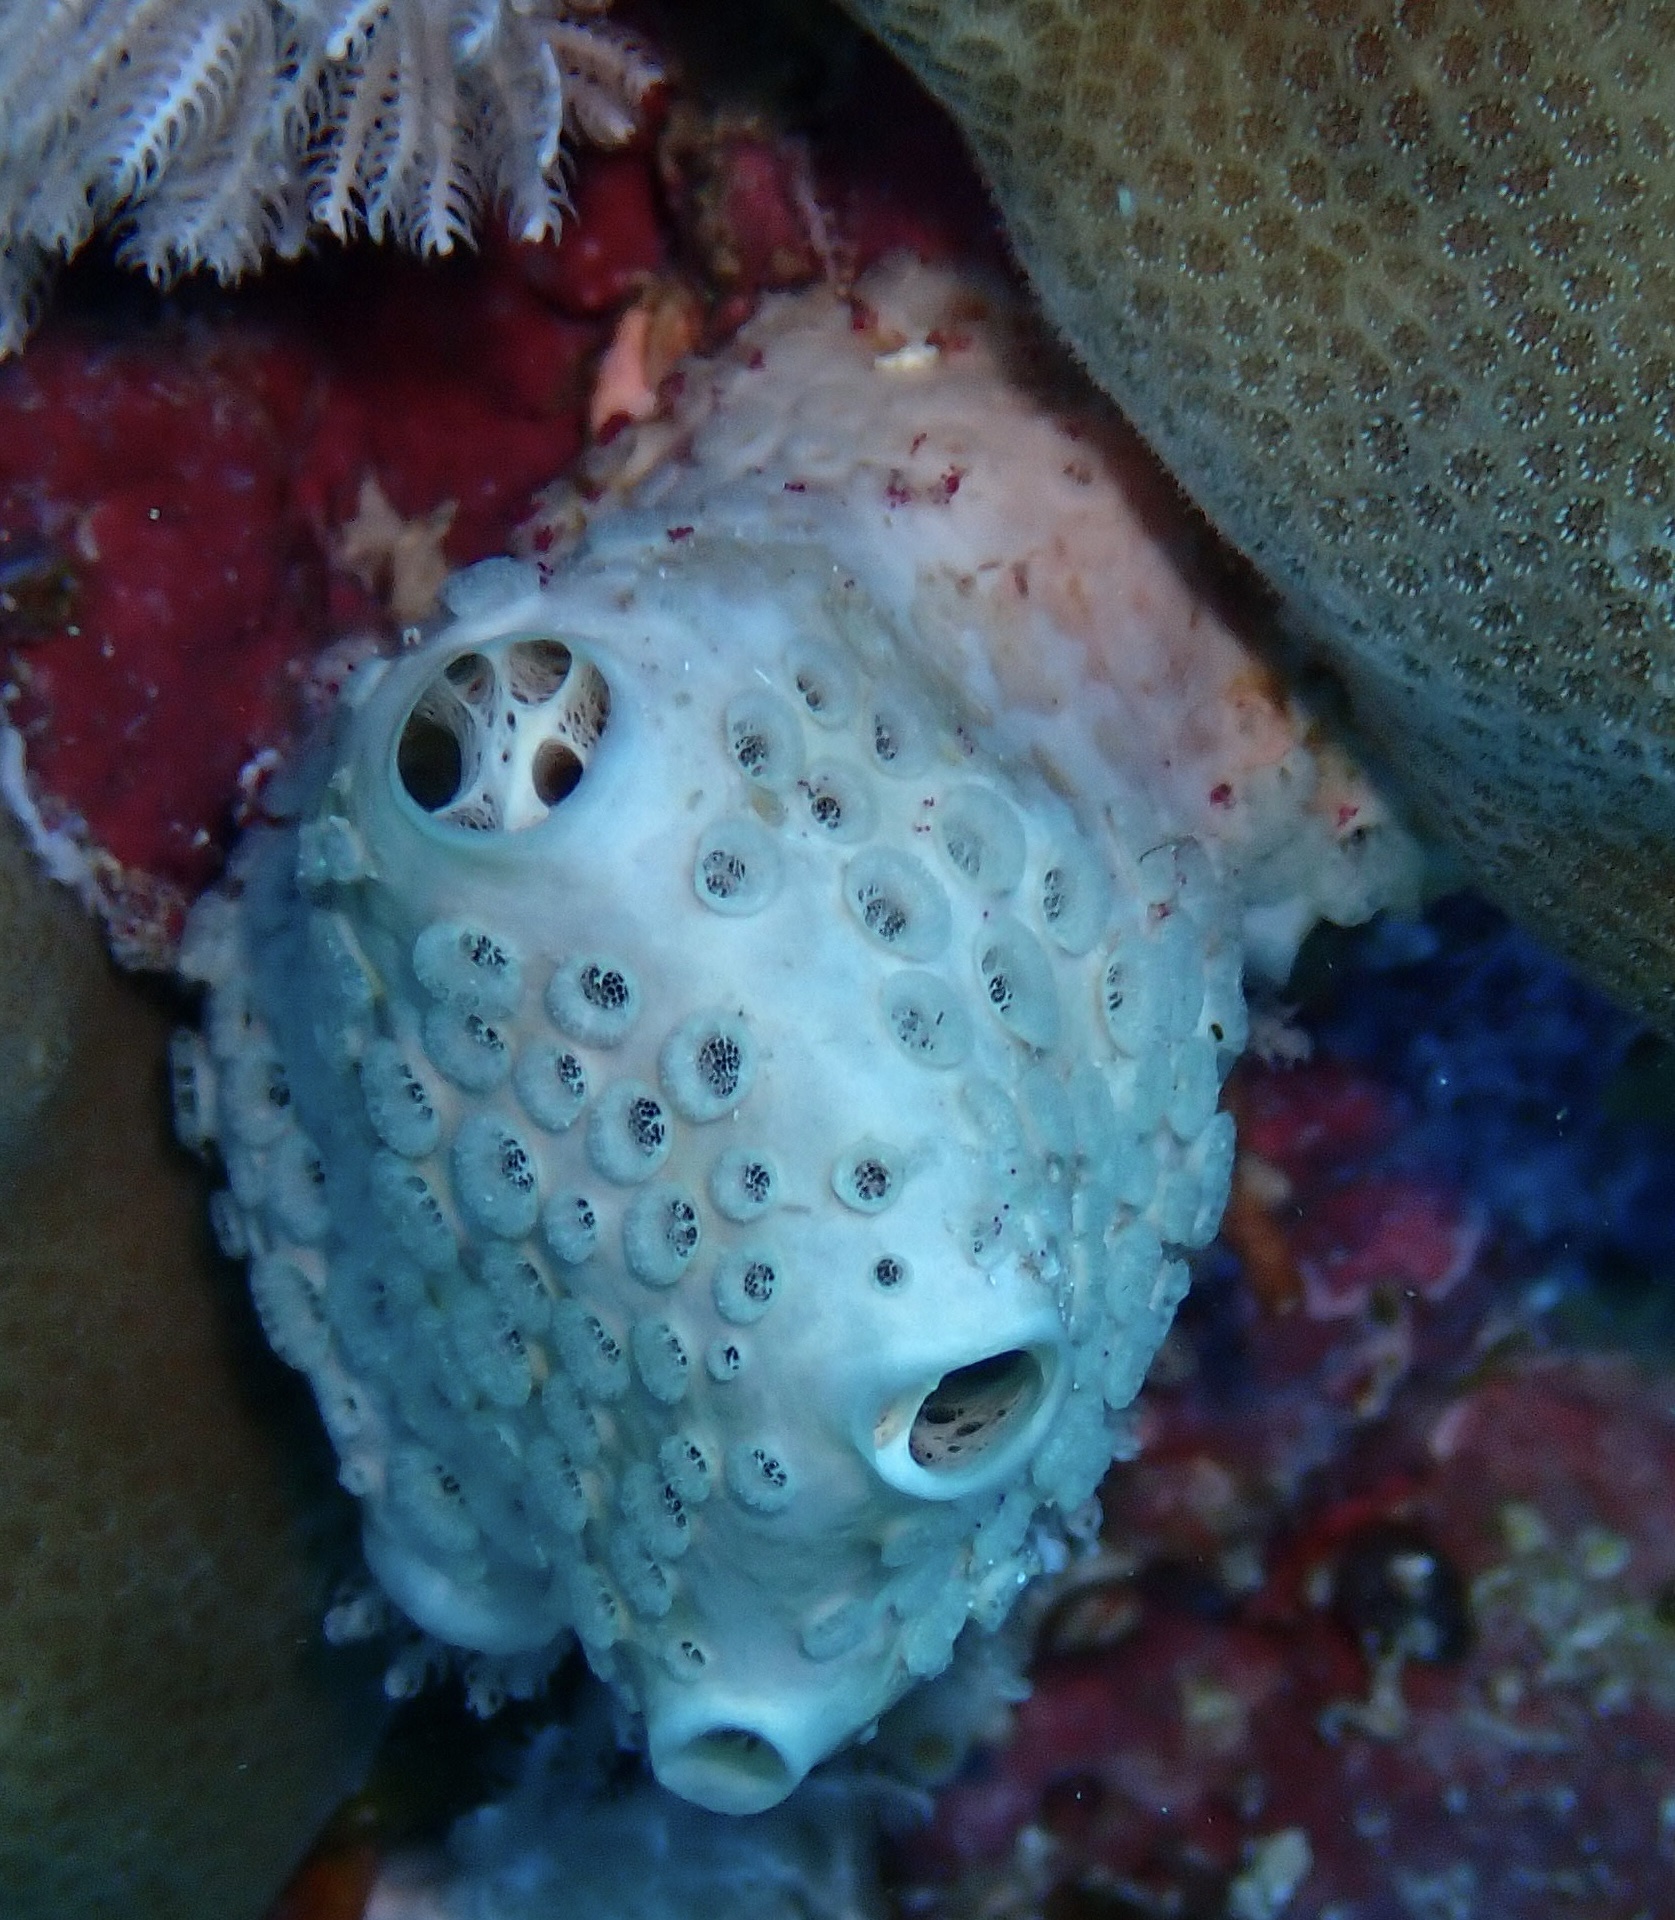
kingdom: Animalia
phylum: Porifera
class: Demospongiae
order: Poecilosclerida
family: Crellidae
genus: Crella
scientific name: Crella cyathophora
